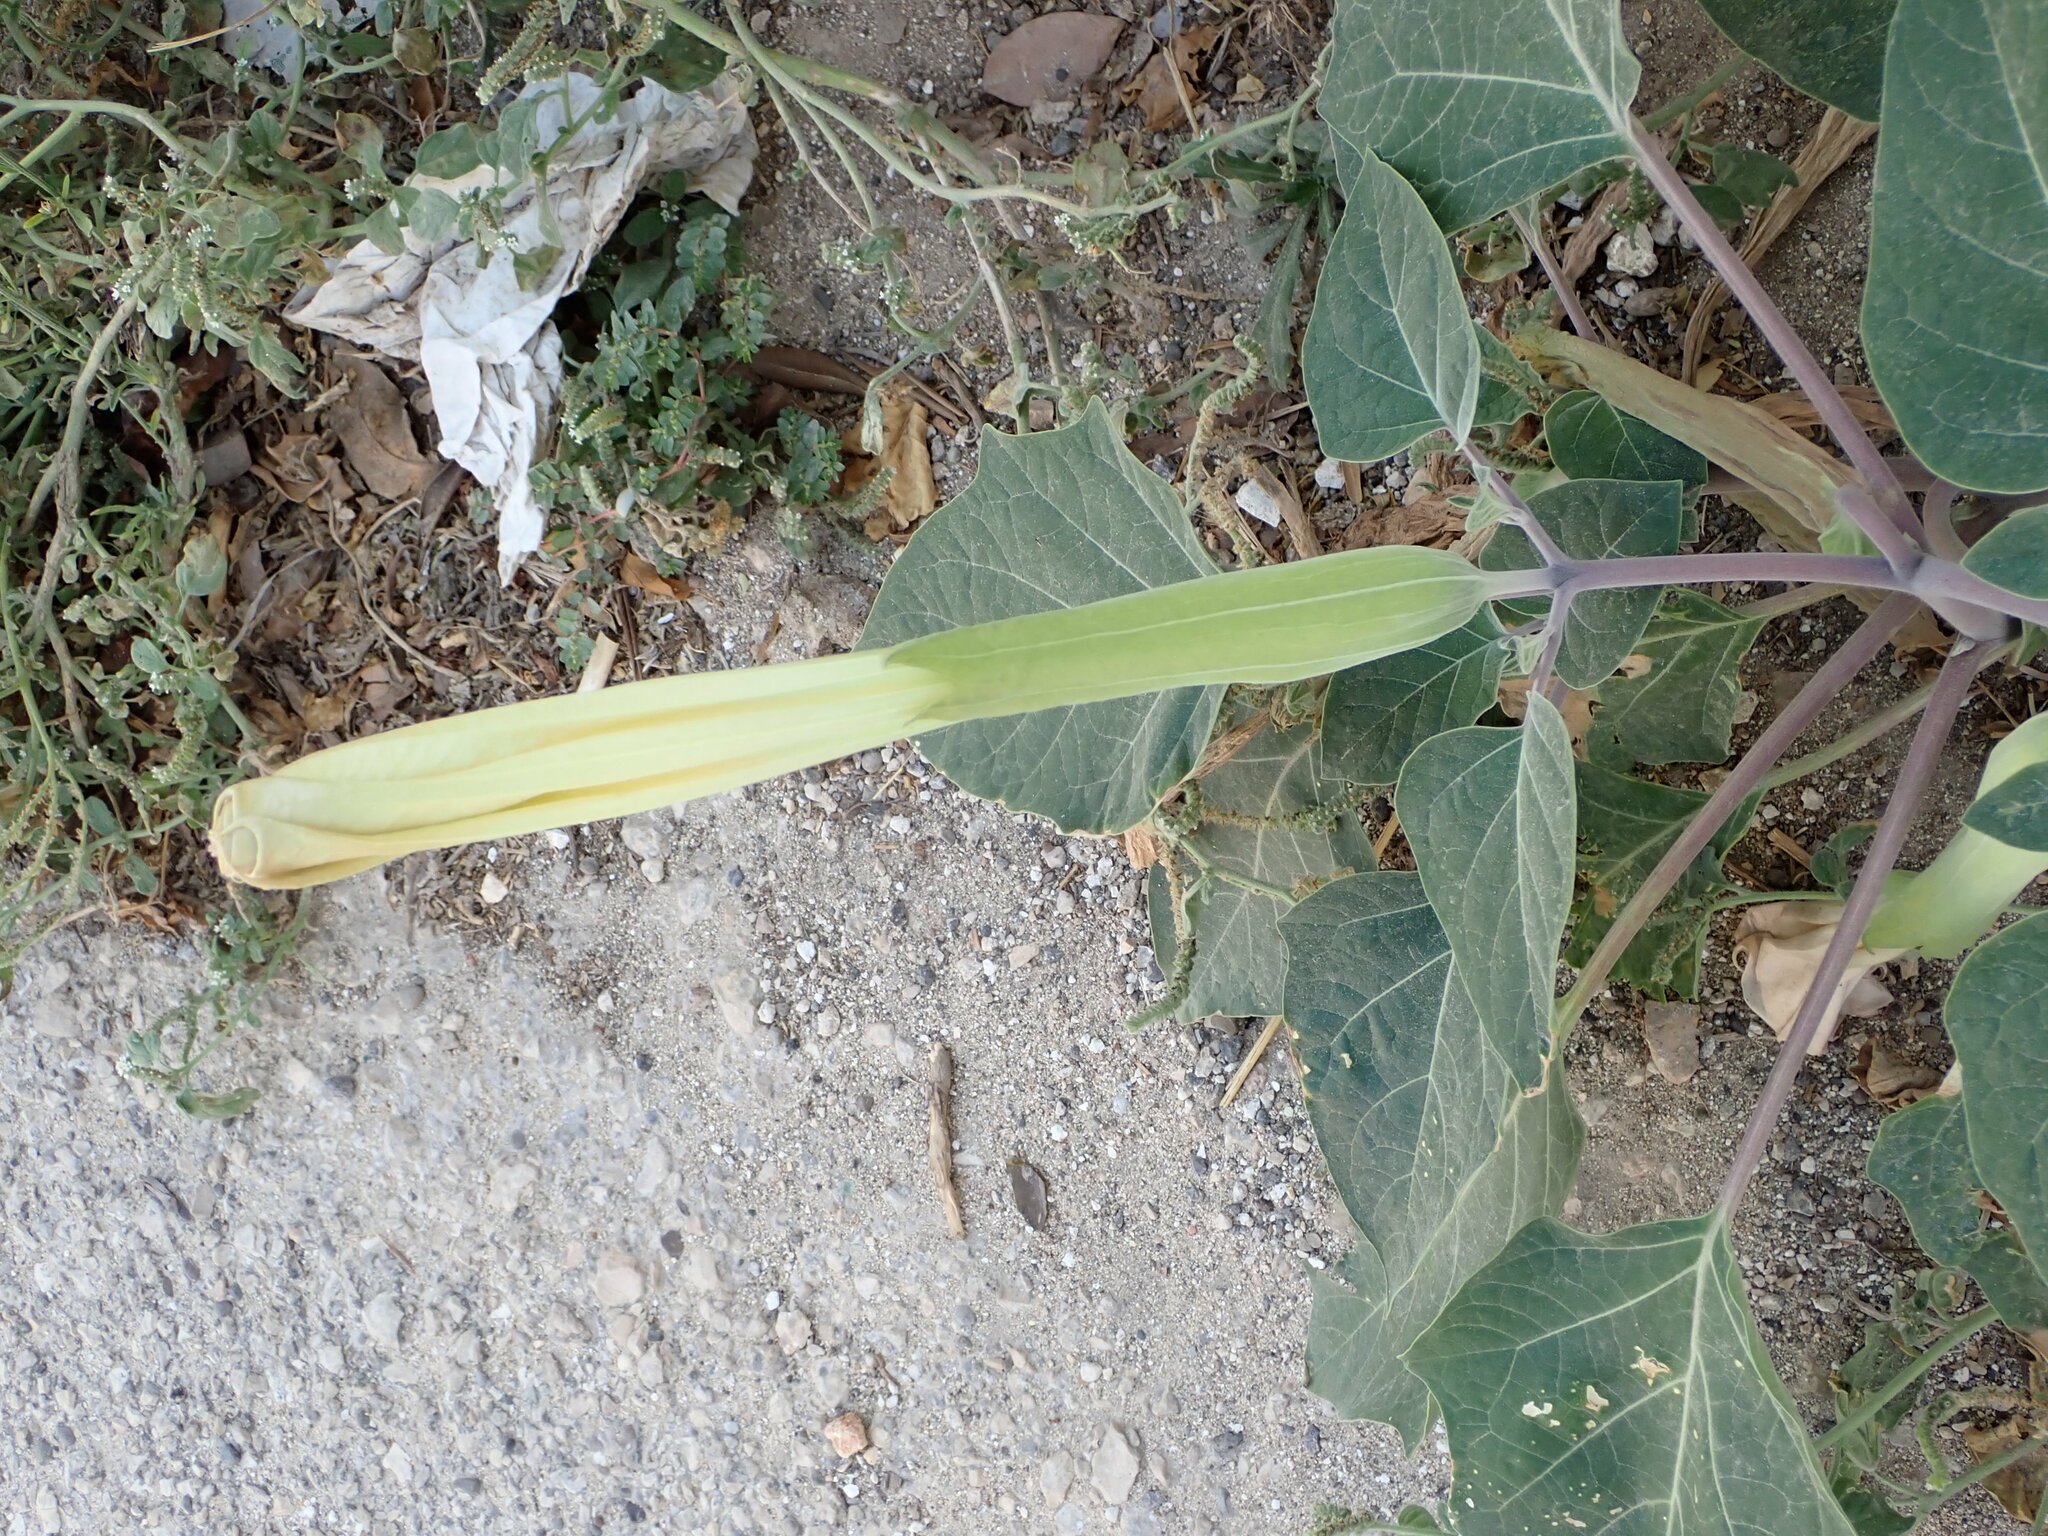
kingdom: Plantae
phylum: Tracheophyta
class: Magnoliopsida
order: Solanales
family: Solanaceae
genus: Datura
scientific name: Datura wrightii
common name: Sacred thorn-apple
